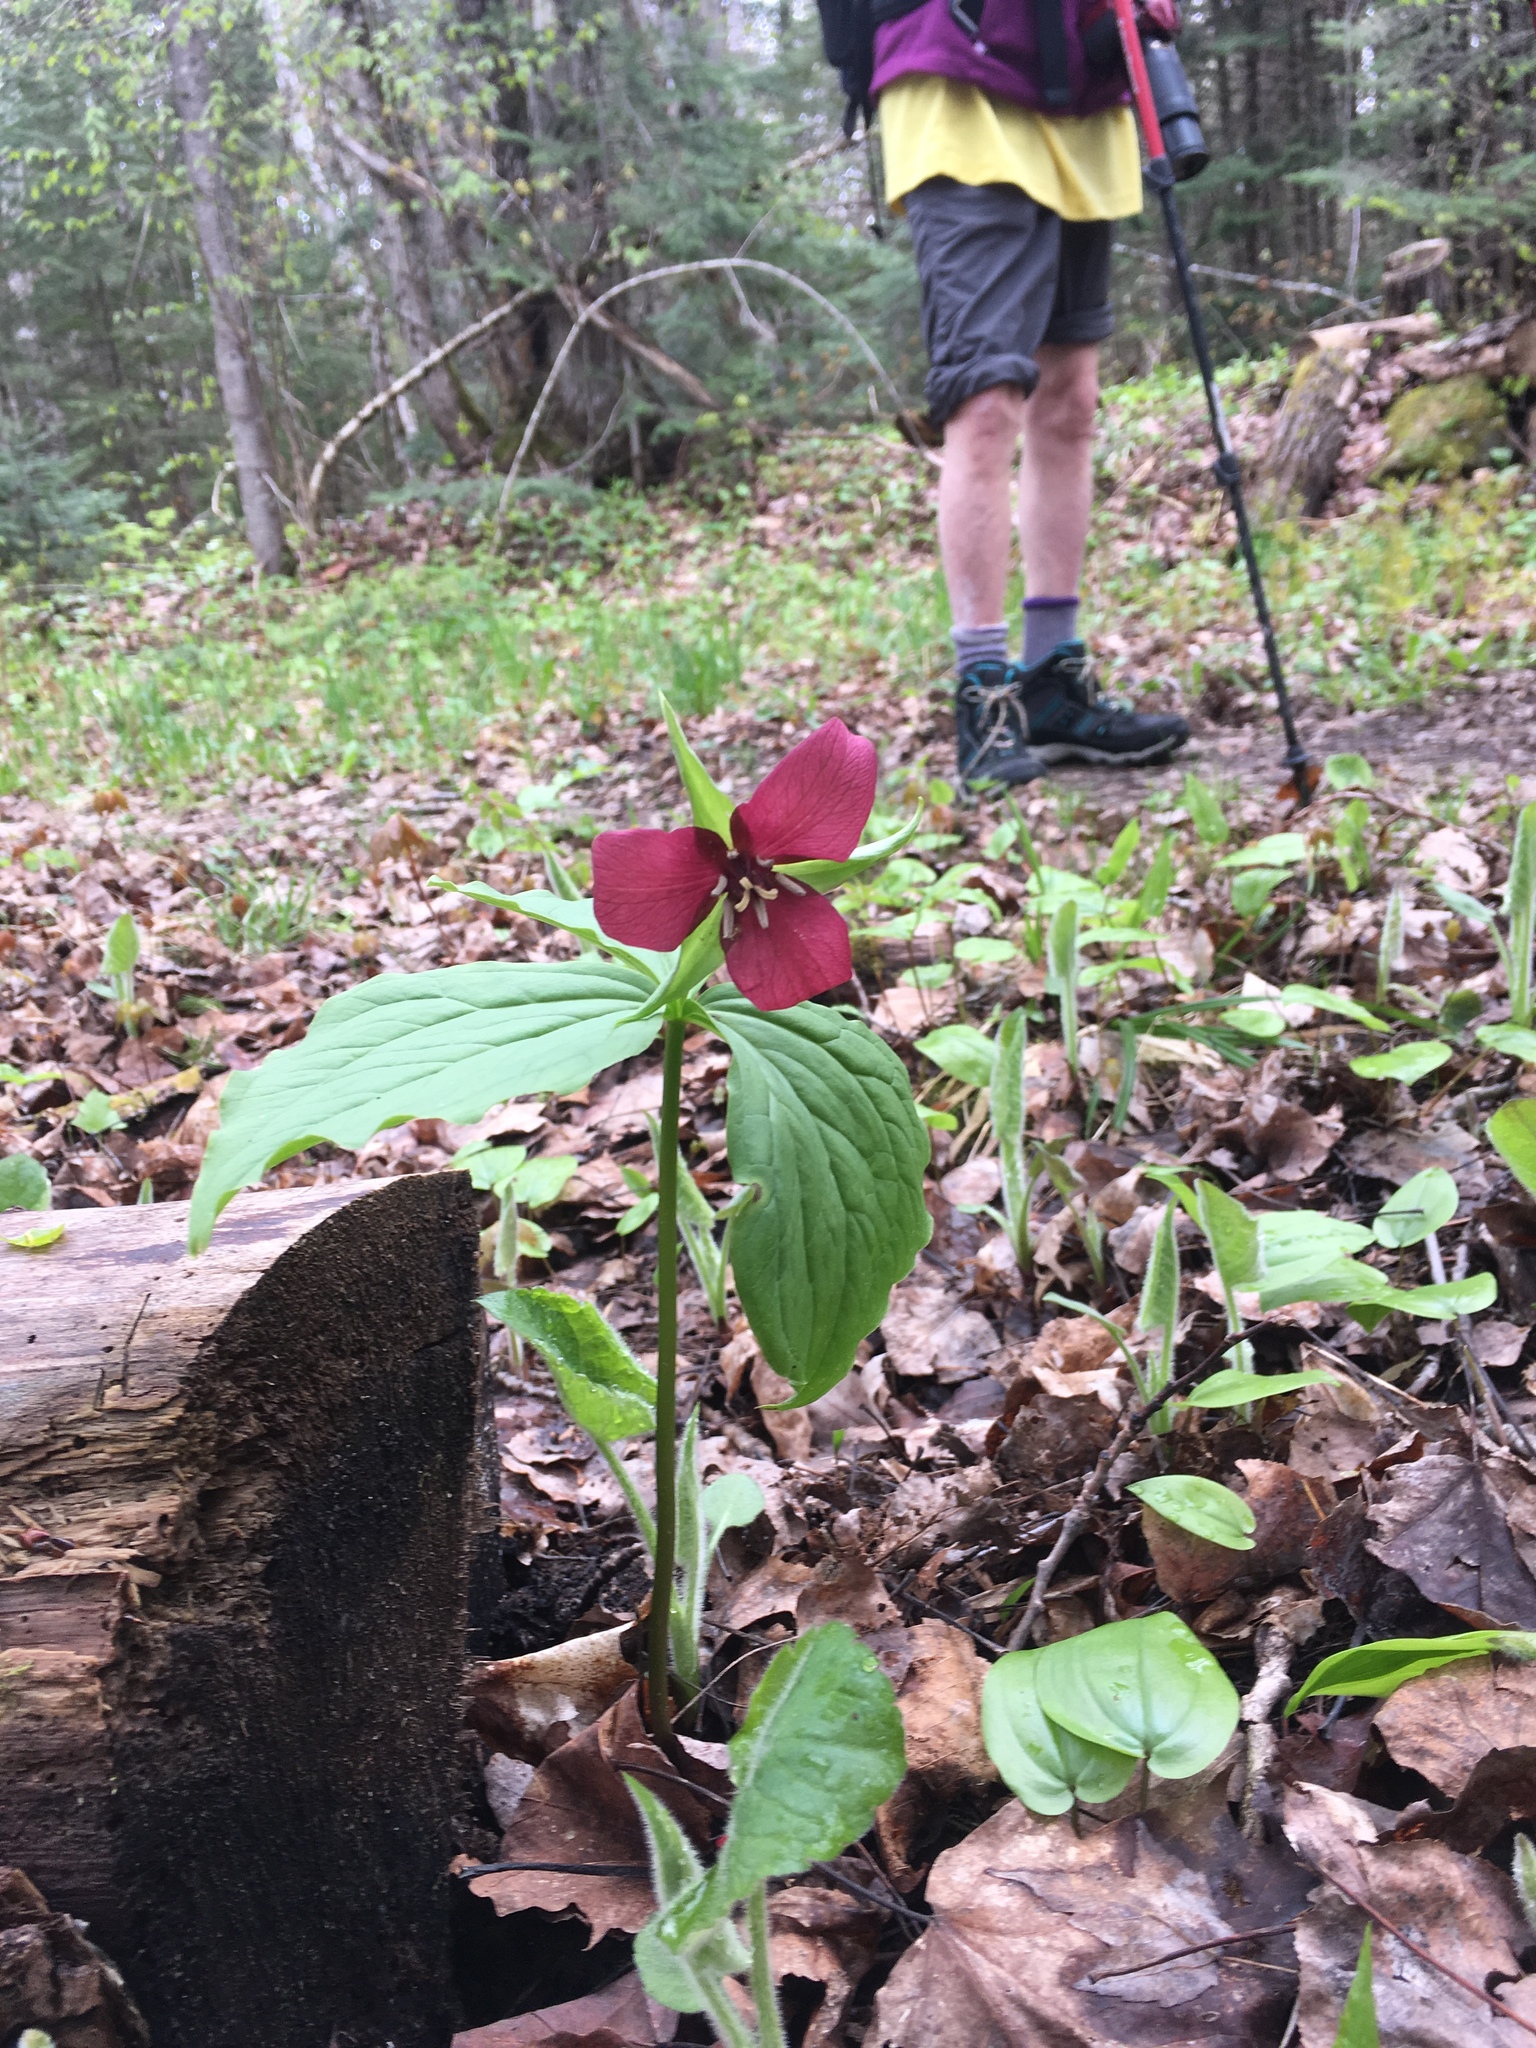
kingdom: Plantae
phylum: Tracheophyta
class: Liliopsida
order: Liliales
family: Melanthiaceae
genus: Trillium
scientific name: Trillium erectum
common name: Purple trillium
